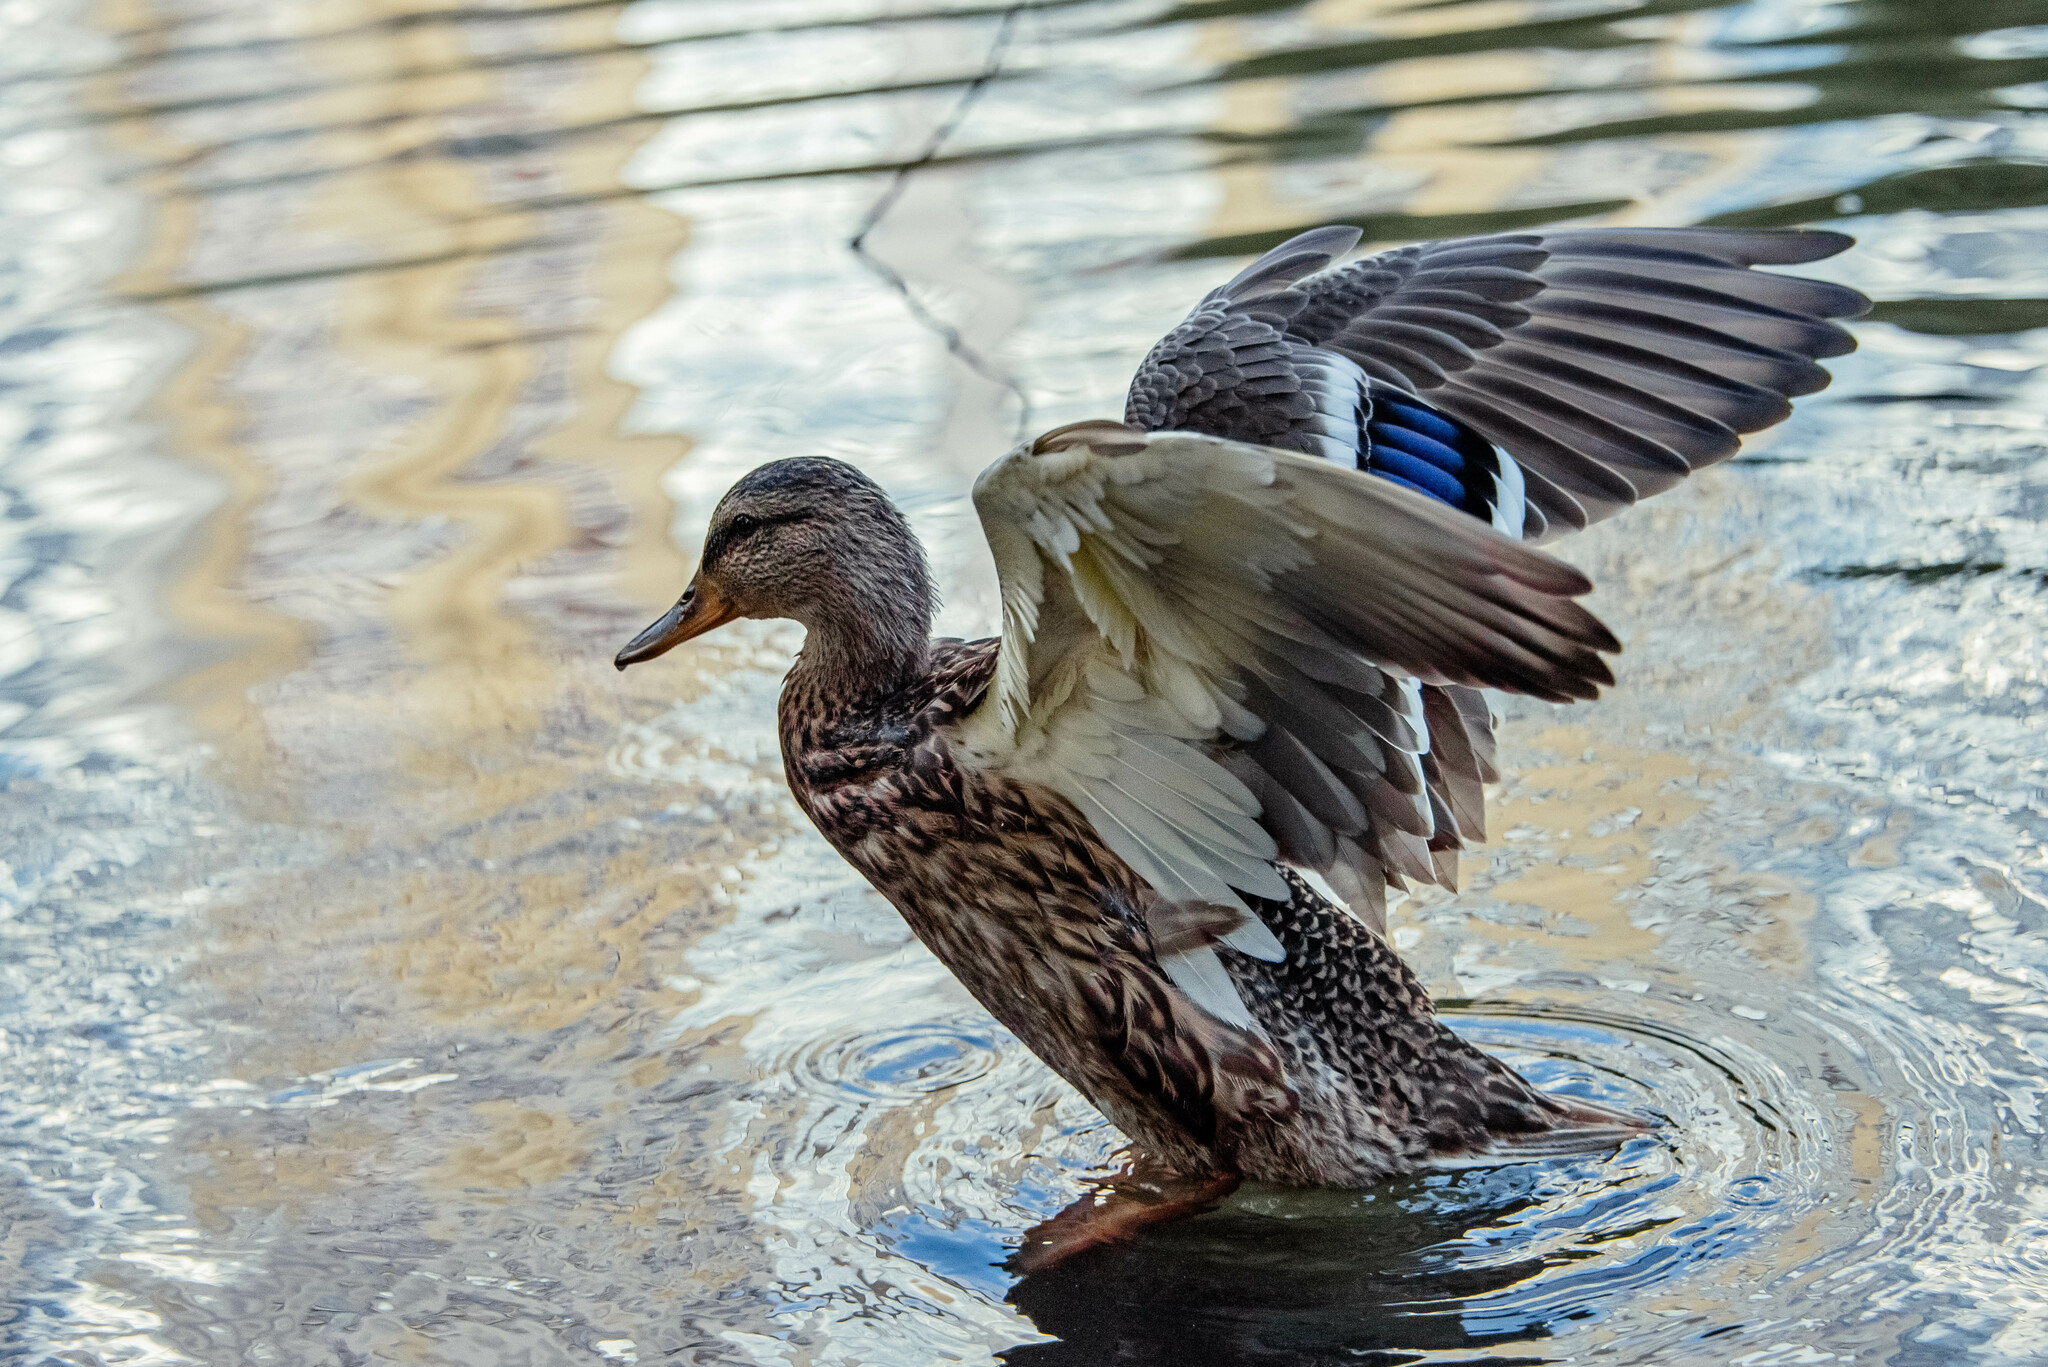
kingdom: Animalia
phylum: Chordata
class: Aves
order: Anseriformes
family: Anatidae
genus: Anas
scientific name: Anas platyrhynchos
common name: Mallard
